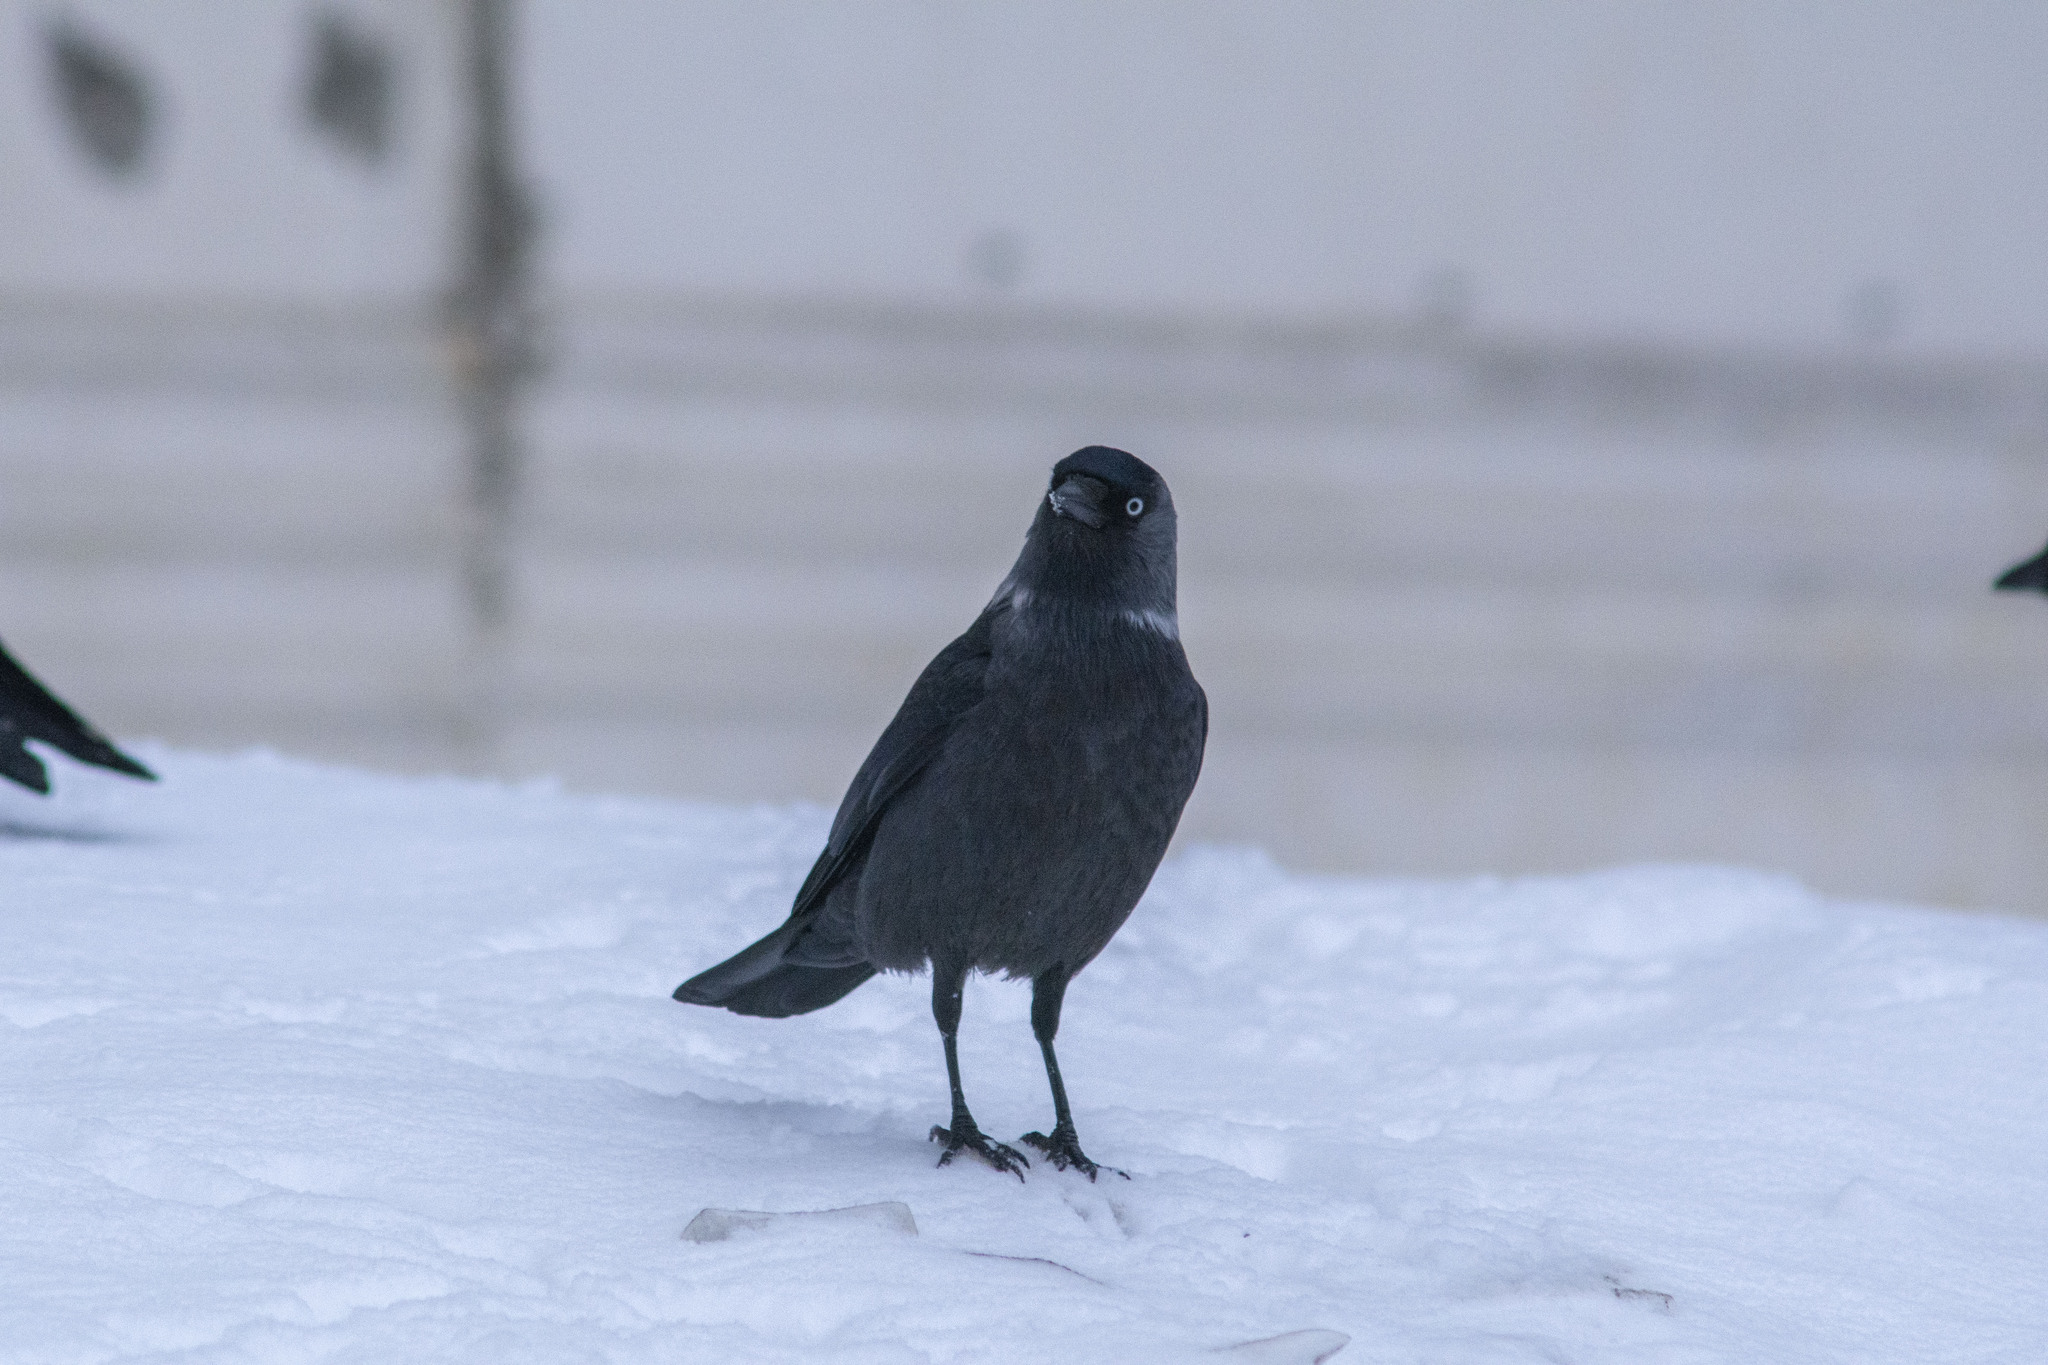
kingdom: Animalia
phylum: Chordata
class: Aves
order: Passeriformes
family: Corvidae
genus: Coloeus
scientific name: Coloeus monedula
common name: Western jackdaw
